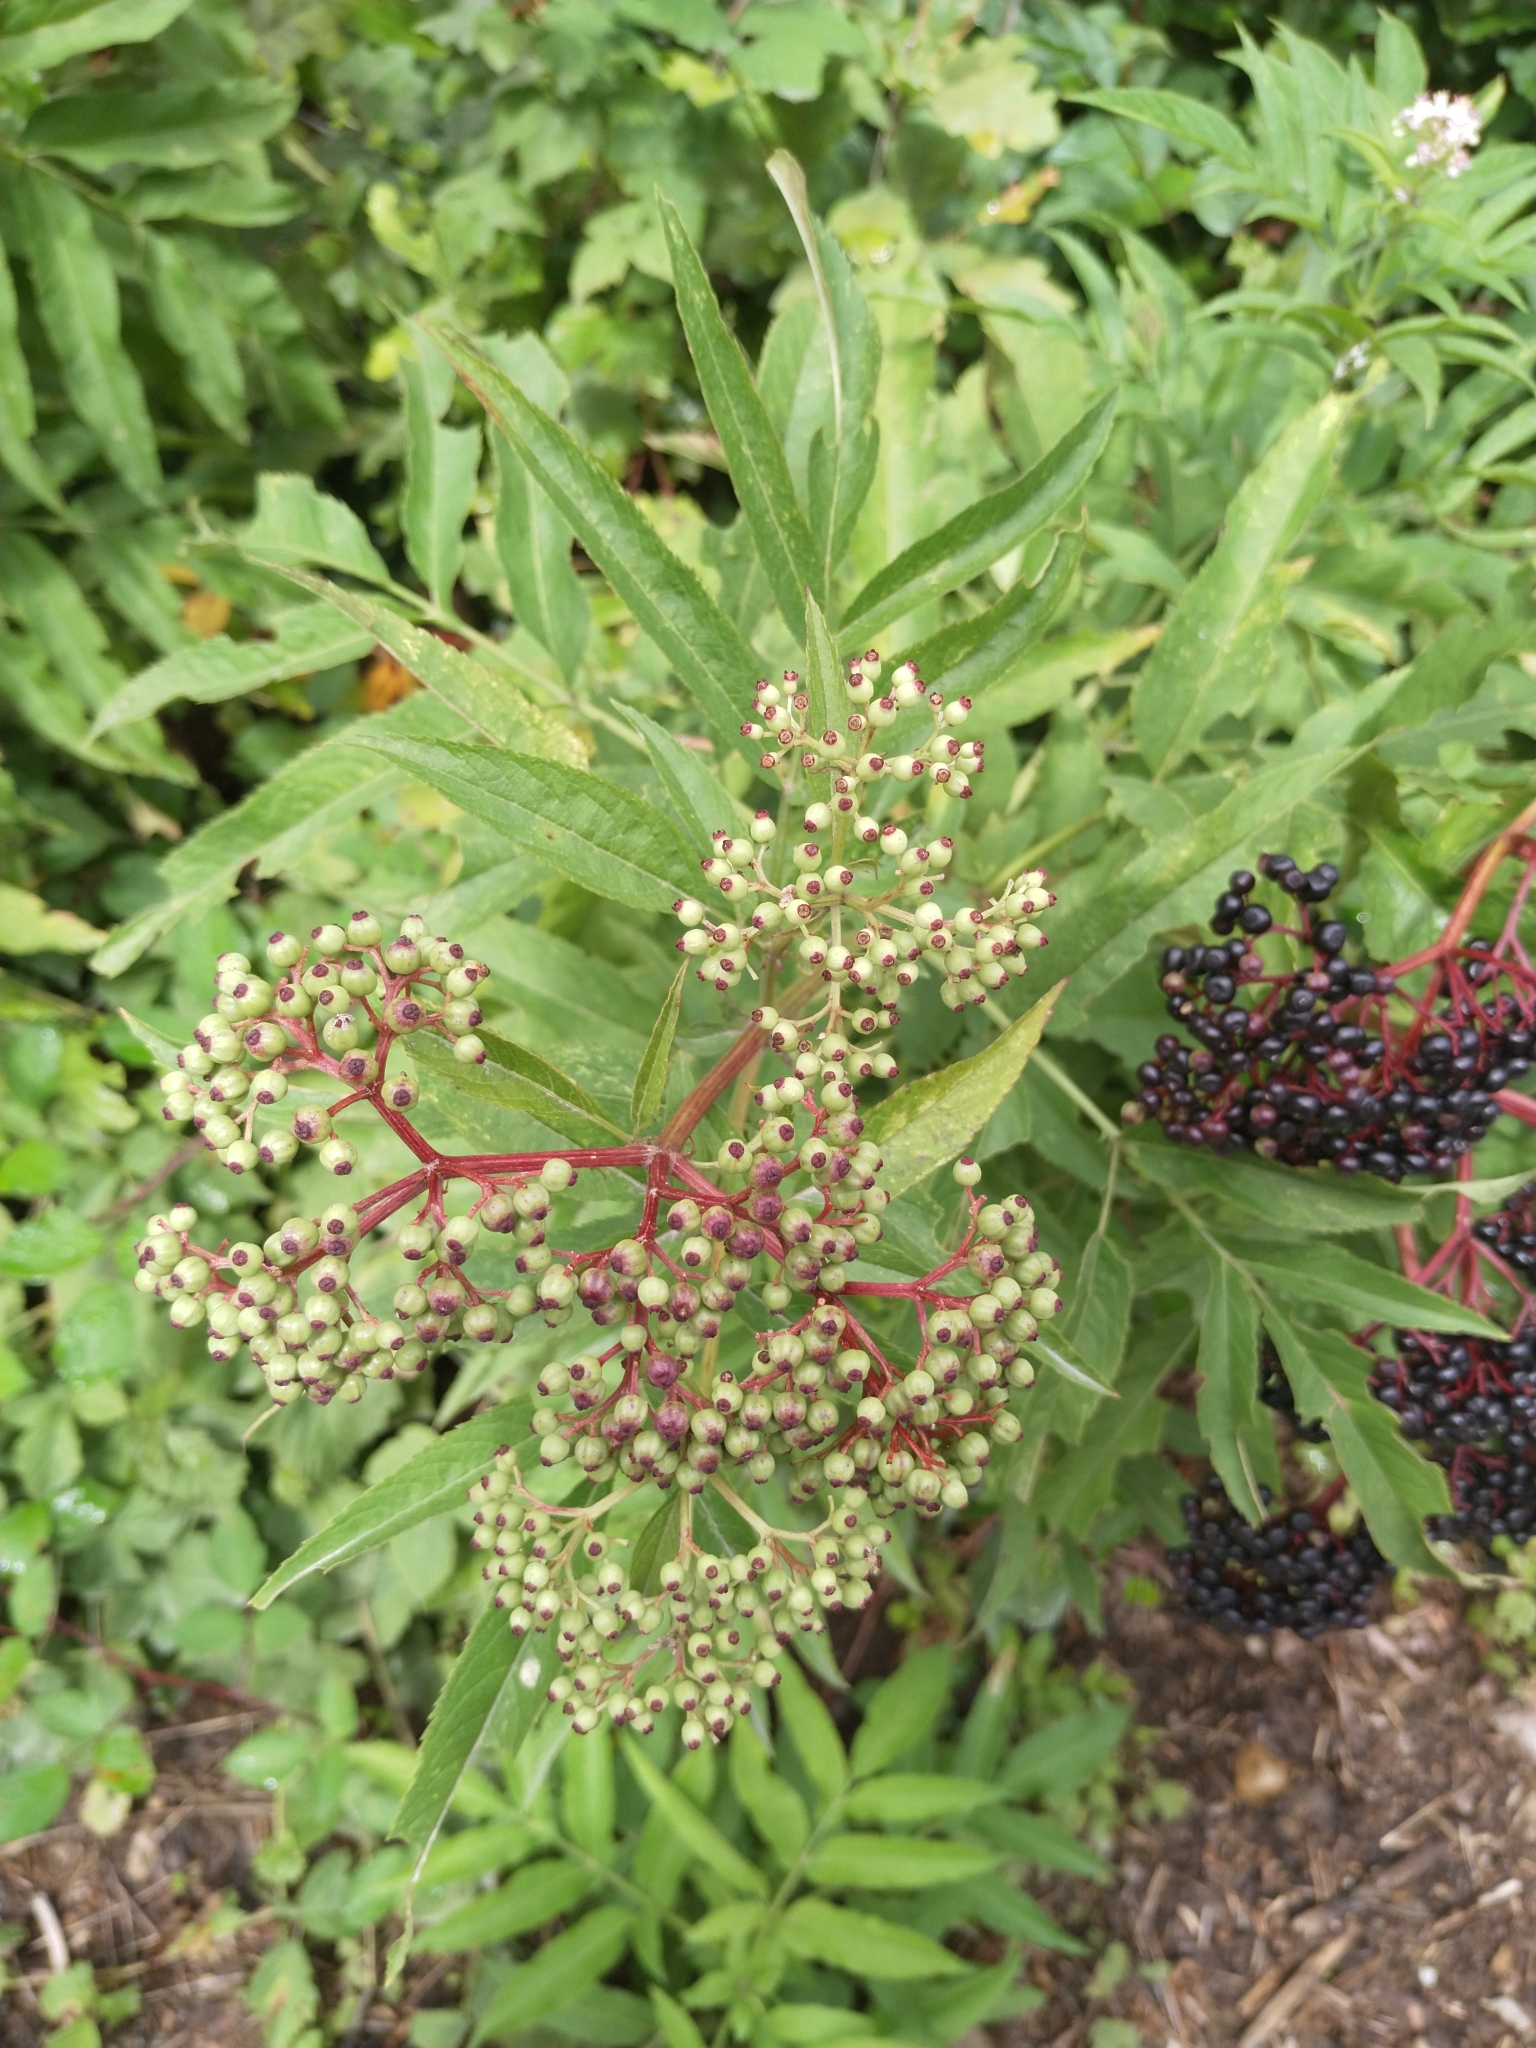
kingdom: Plantae
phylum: Tracheophyta
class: Magnoliopsida
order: Dipsacales
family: Viburnaceae
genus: Sambucus
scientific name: Sambucus ebulus
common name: Dwarf elder
